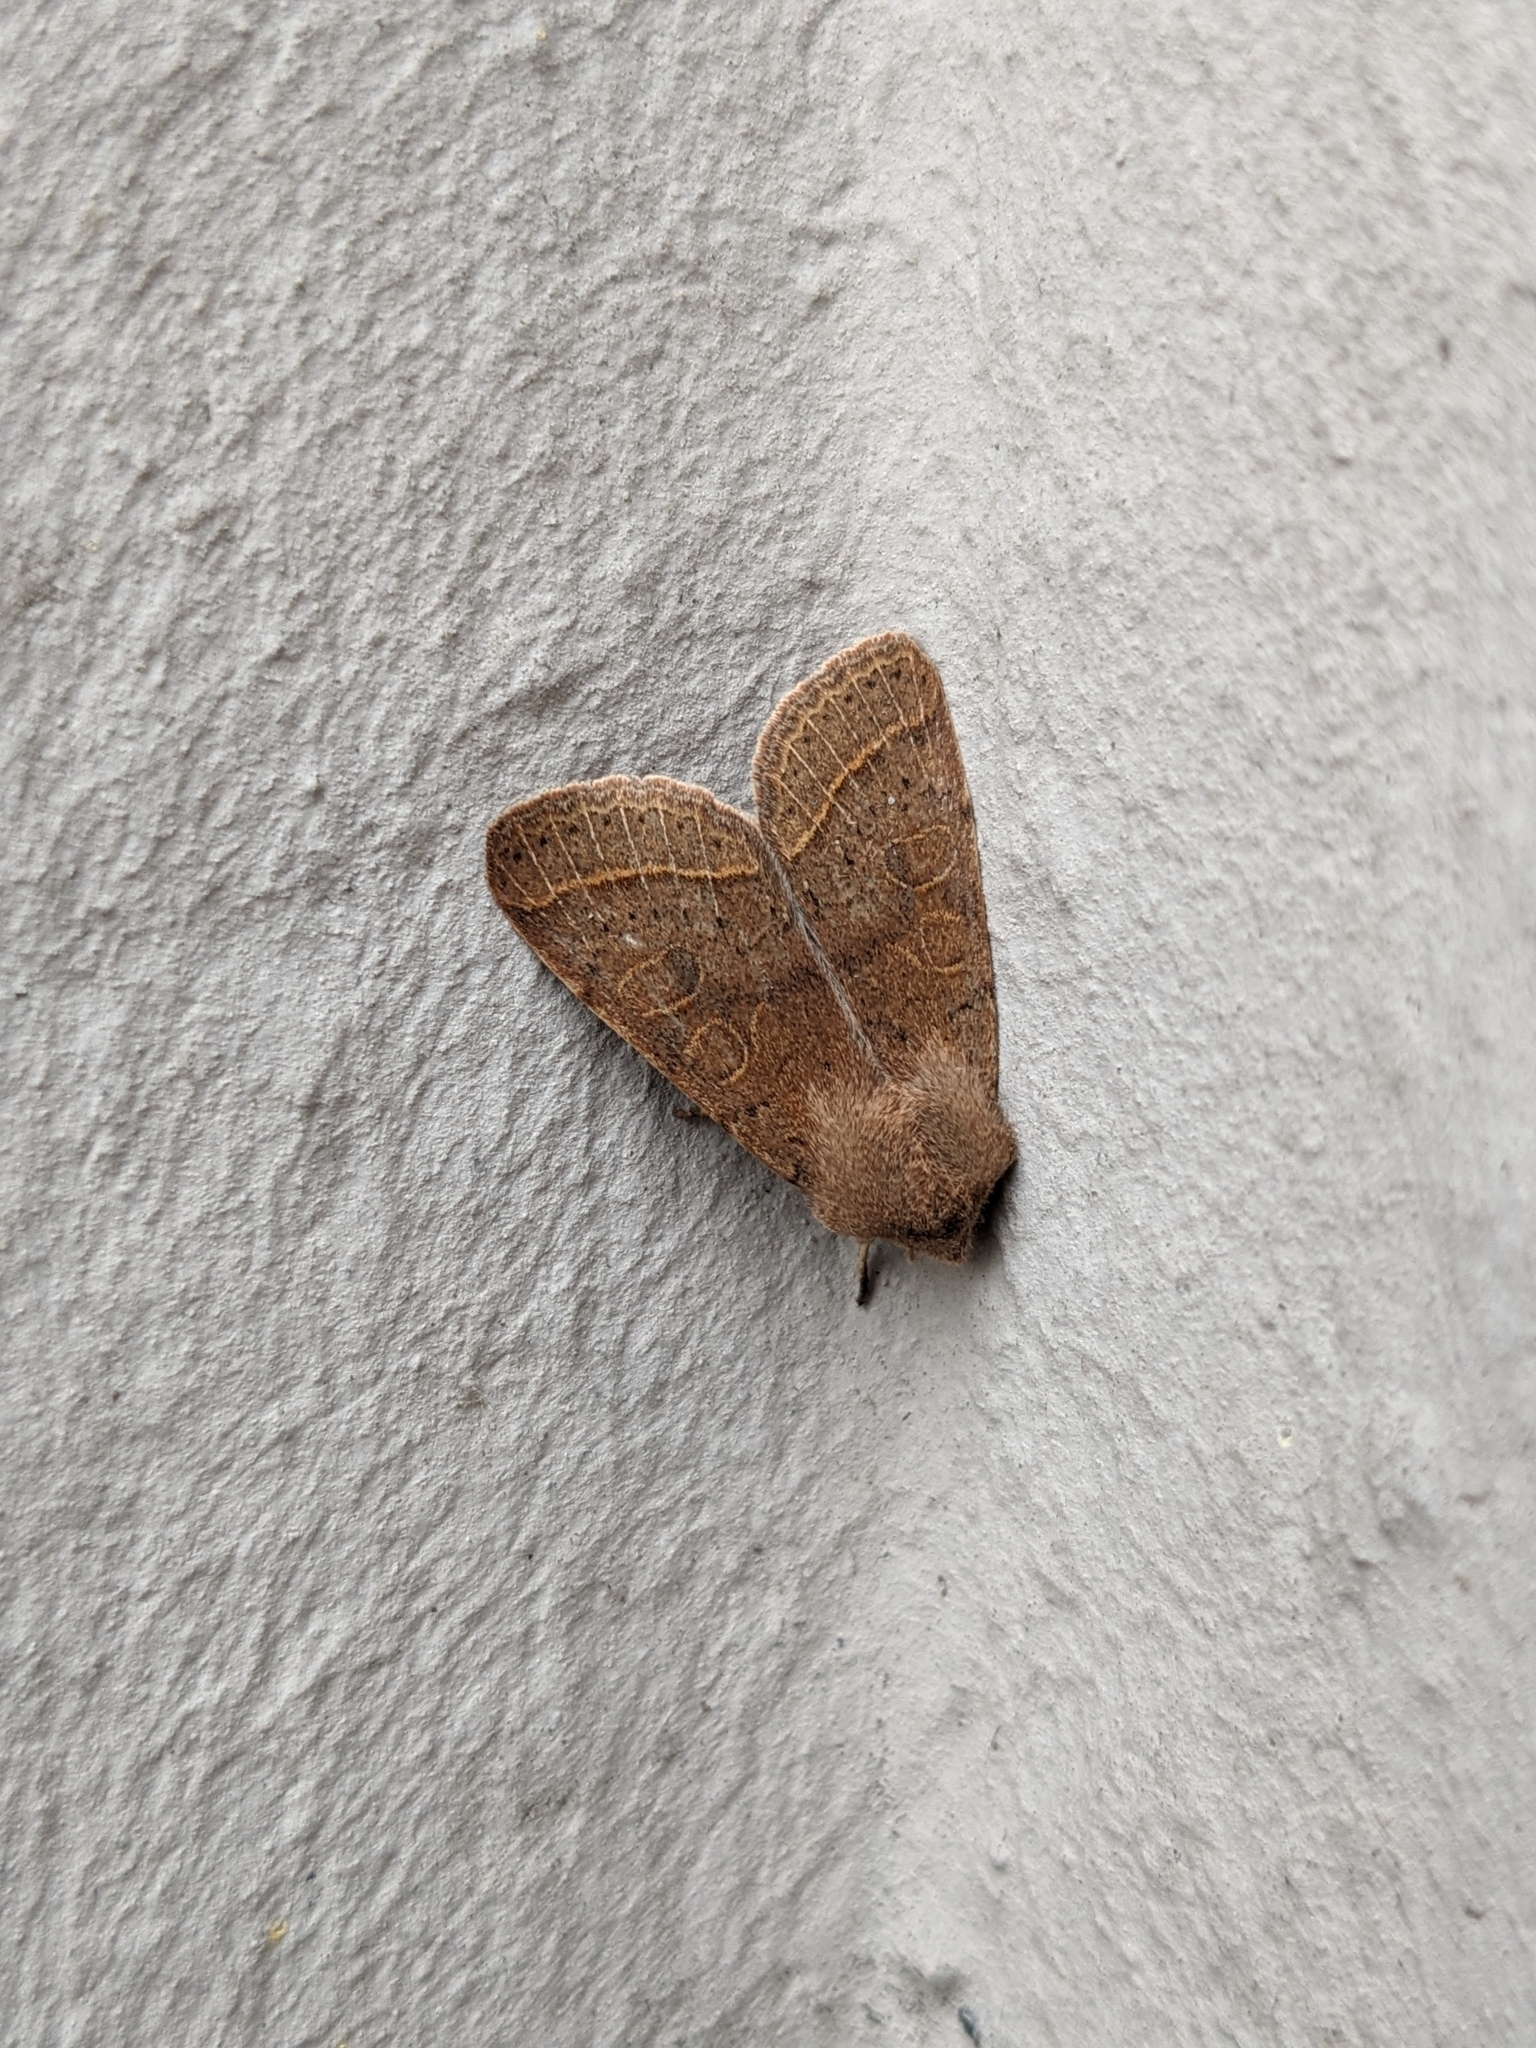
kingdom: Animalia
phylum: Arthropoda
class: Insecta
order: Lepidoptera
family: Noctuidae
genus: Orthosia
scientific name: Orthosia cerasi
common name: Common quaker
